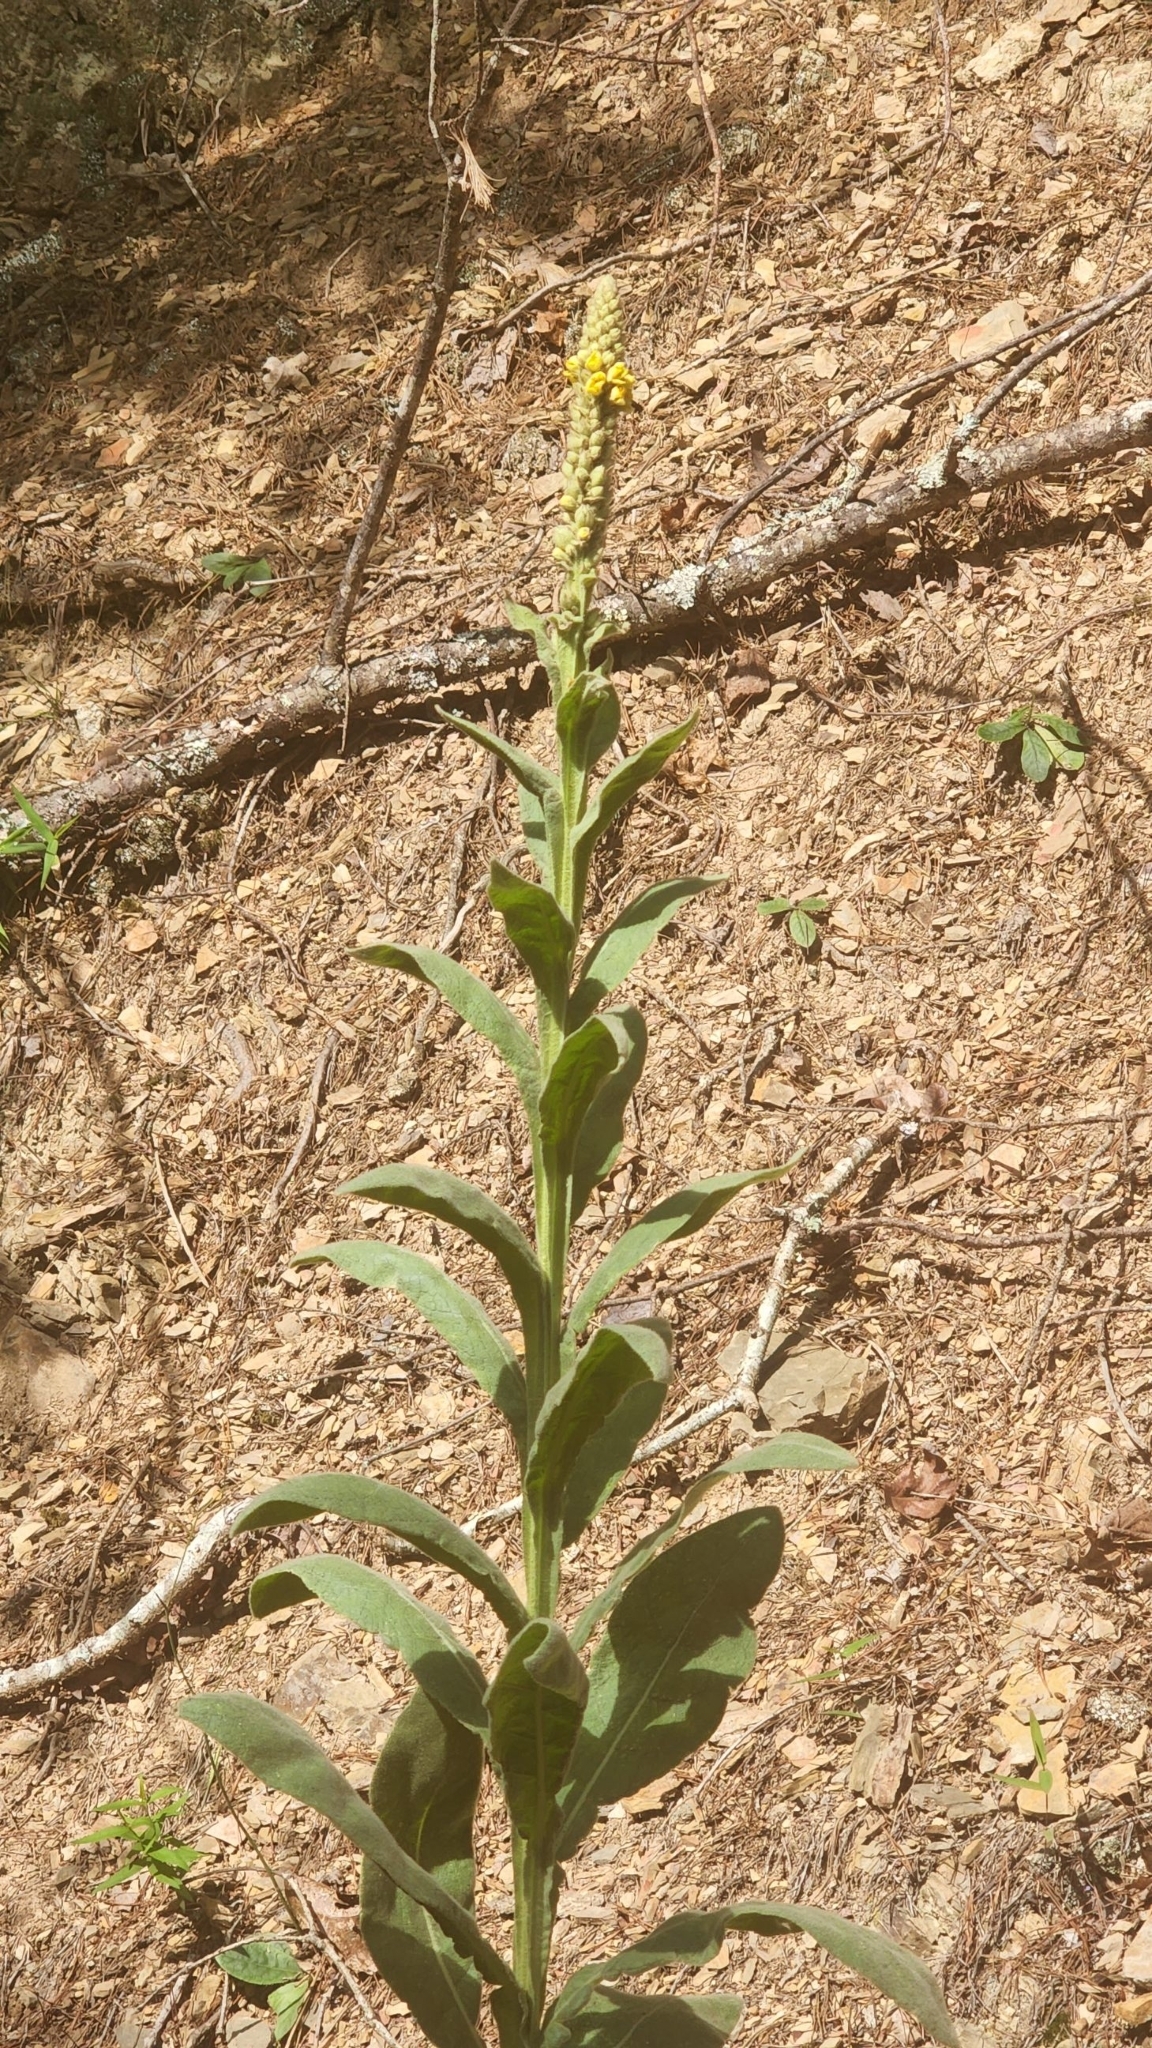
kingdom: Plantae
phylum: Tracheophyta
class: Magnoliopsida
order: Lamiales
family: Scrophulariaceae
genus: Verbascum
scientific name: Verbascum thapsus
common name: Common mullein
